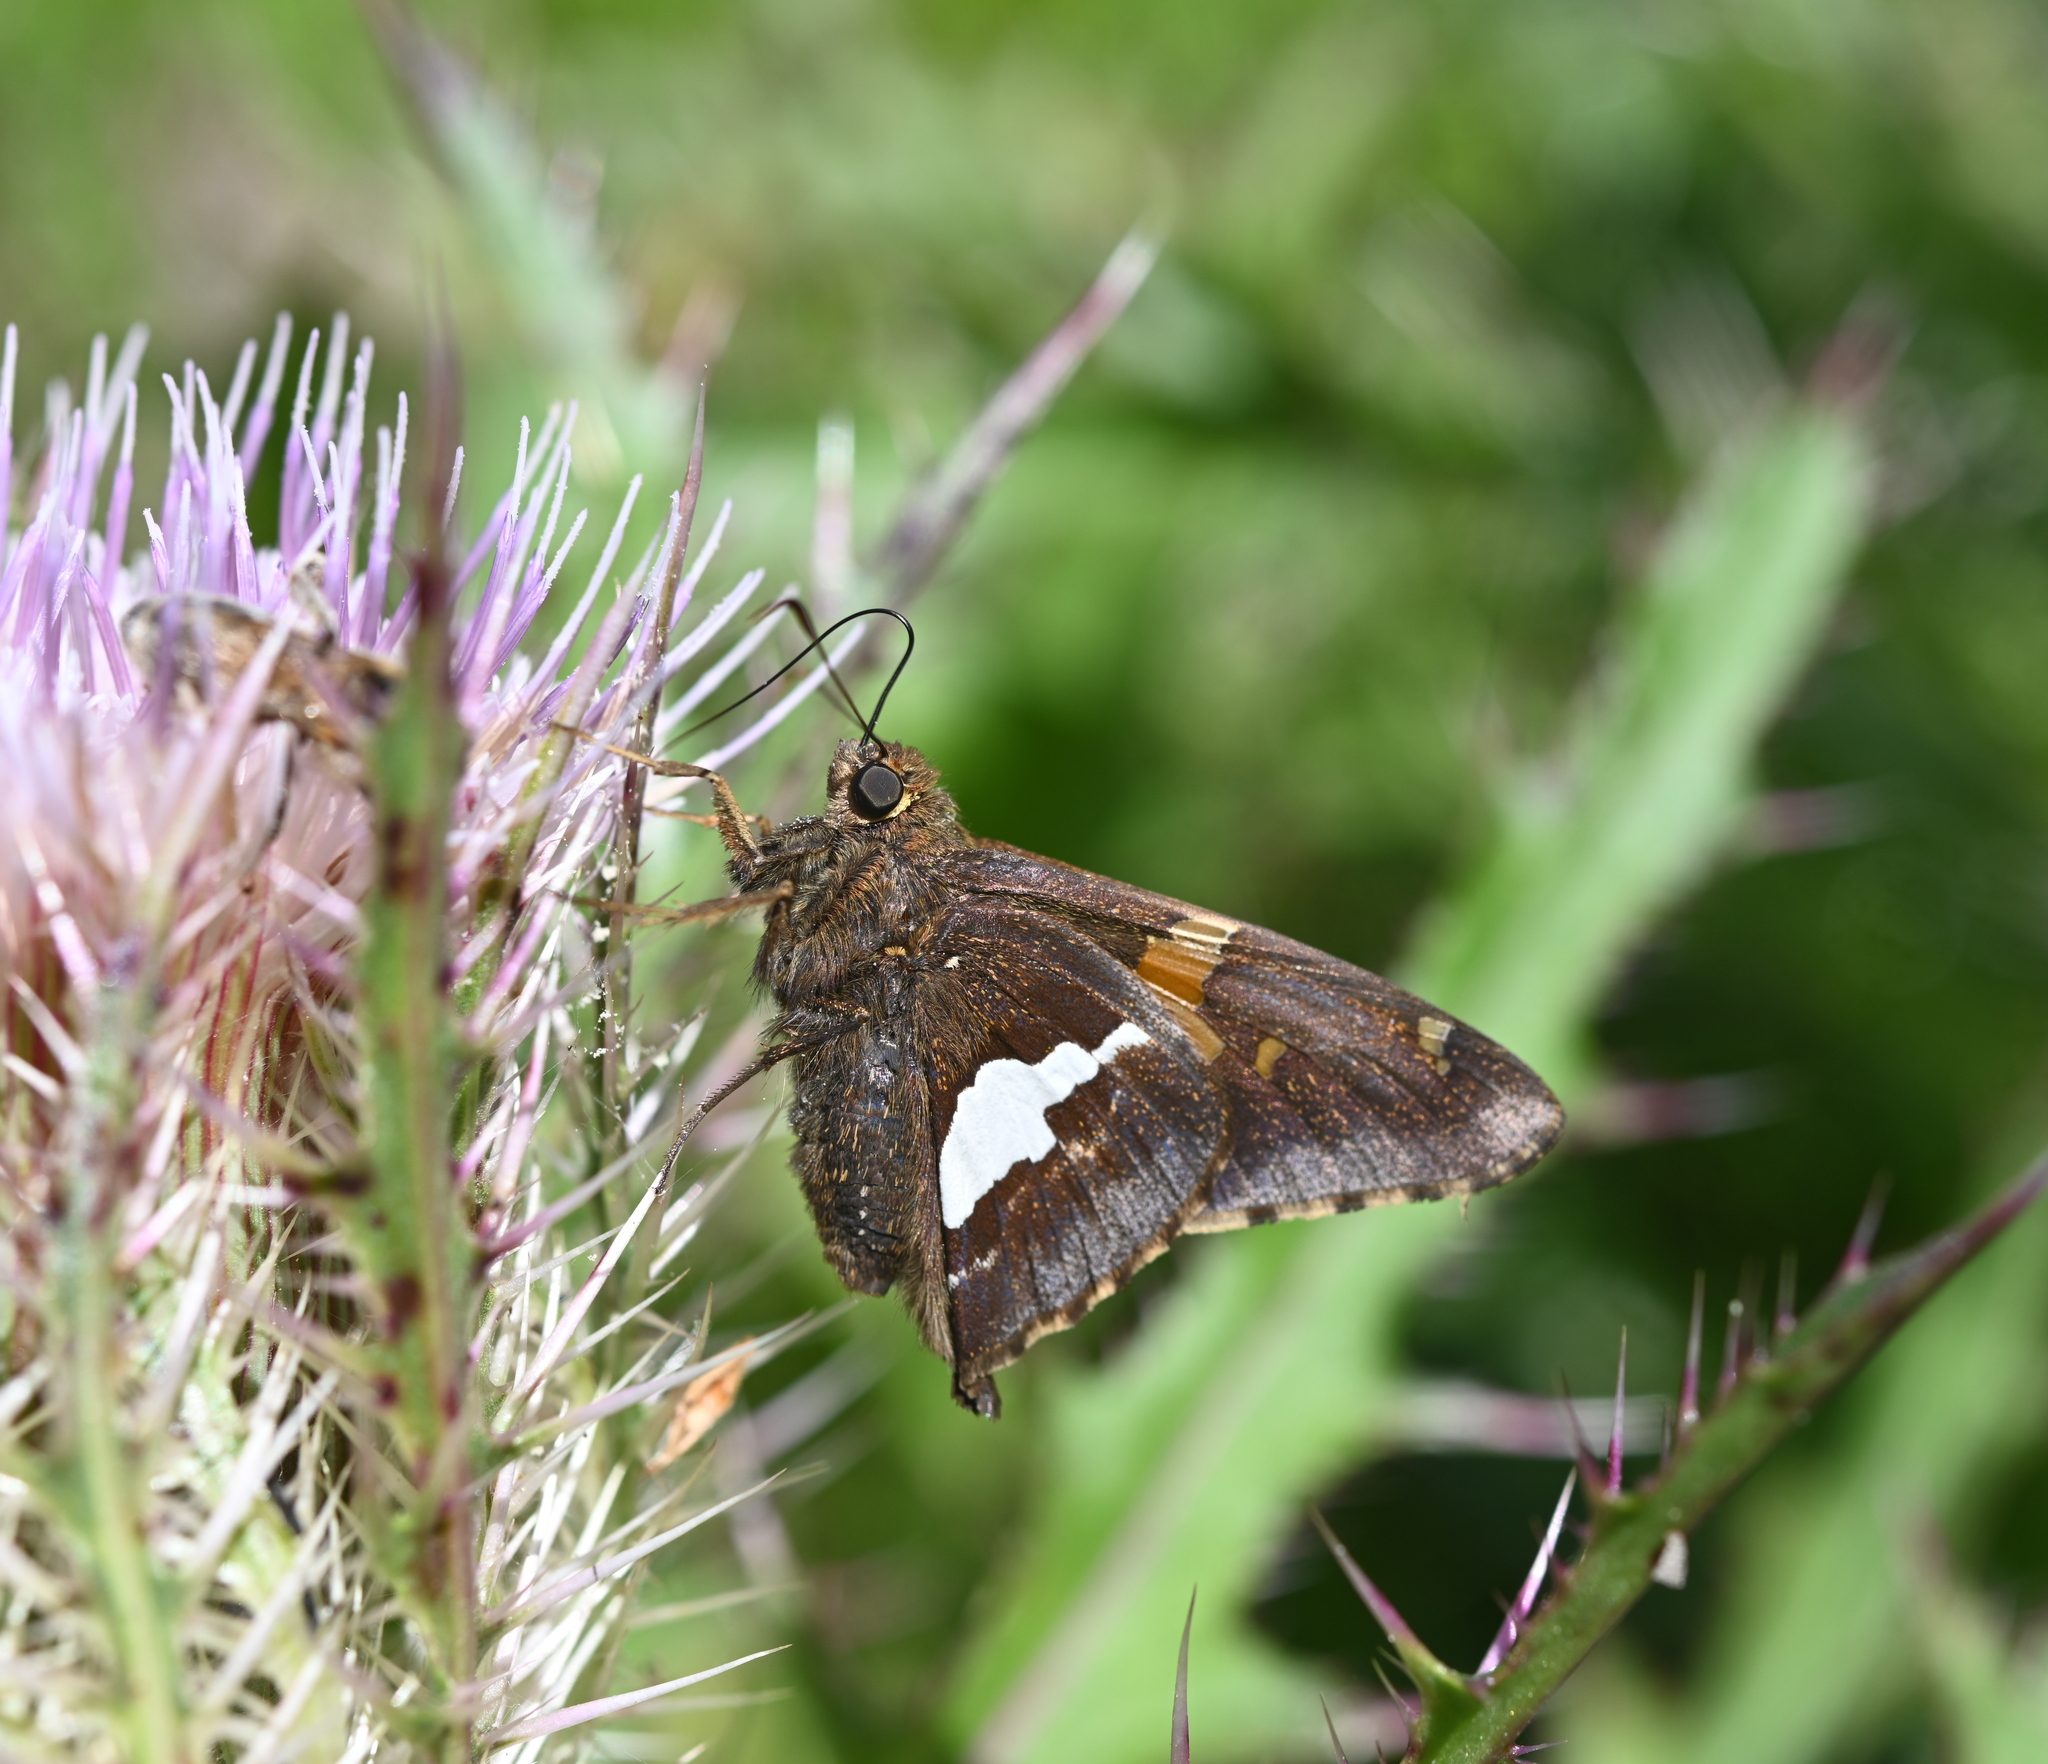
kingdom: Animalia
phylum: Arthropoda
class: Insecta
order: Lepidoptera
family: Hesperiidae
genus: Epargyreus
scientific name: Epargyreus clarus
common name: Silver-spotted skipper
